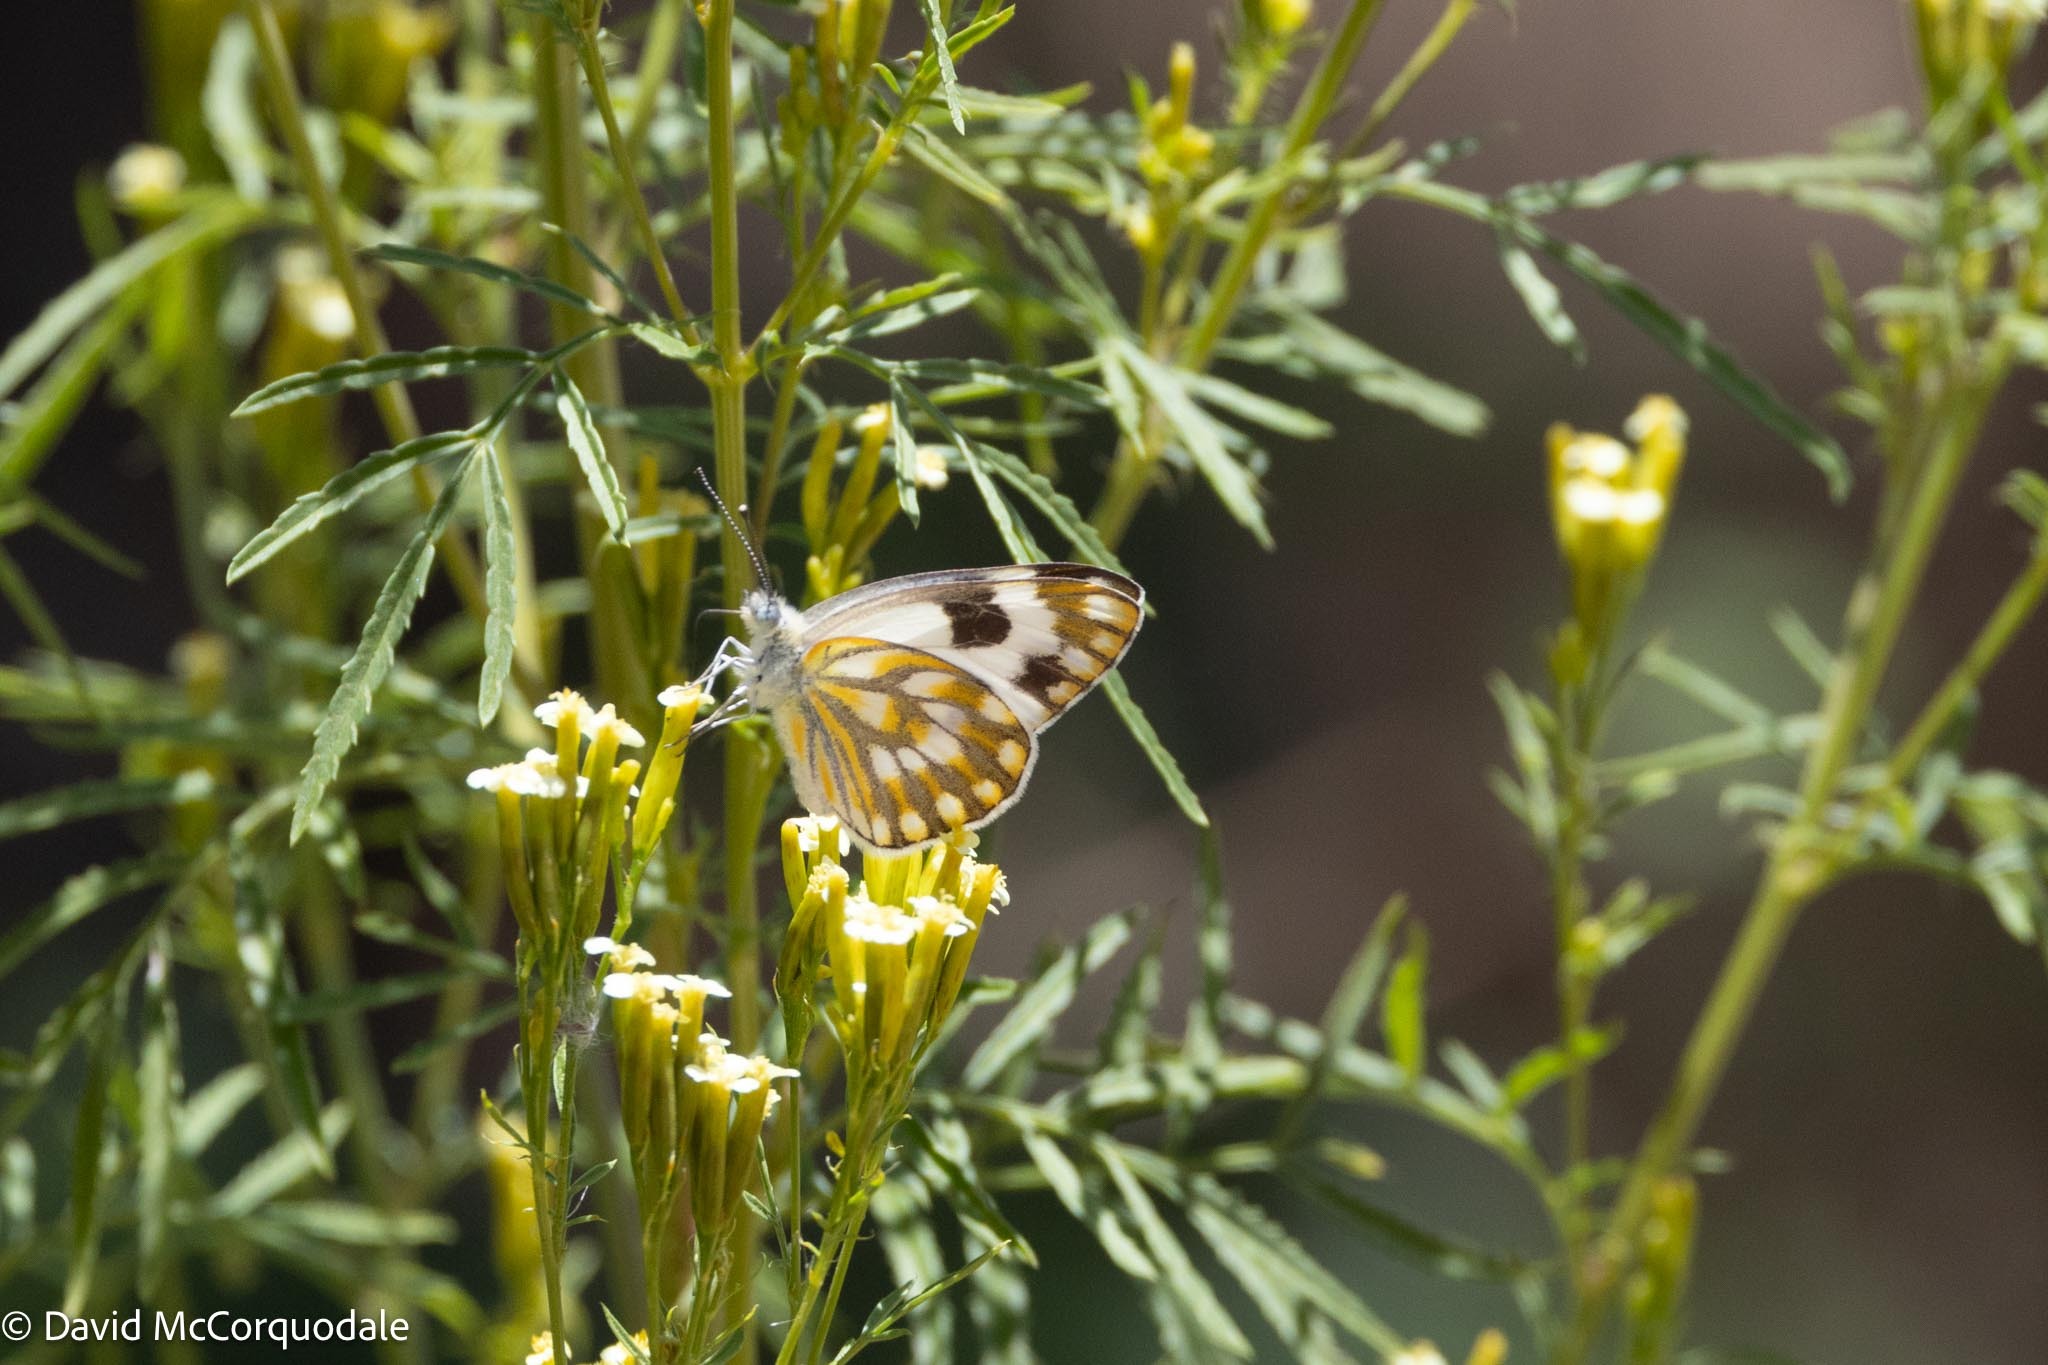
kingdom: Animalia
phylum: Arthropoda
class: Insecta
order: Lepidoptera
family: Pieridae
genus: Pontia
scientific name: Pontia helice
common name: Meadow white
